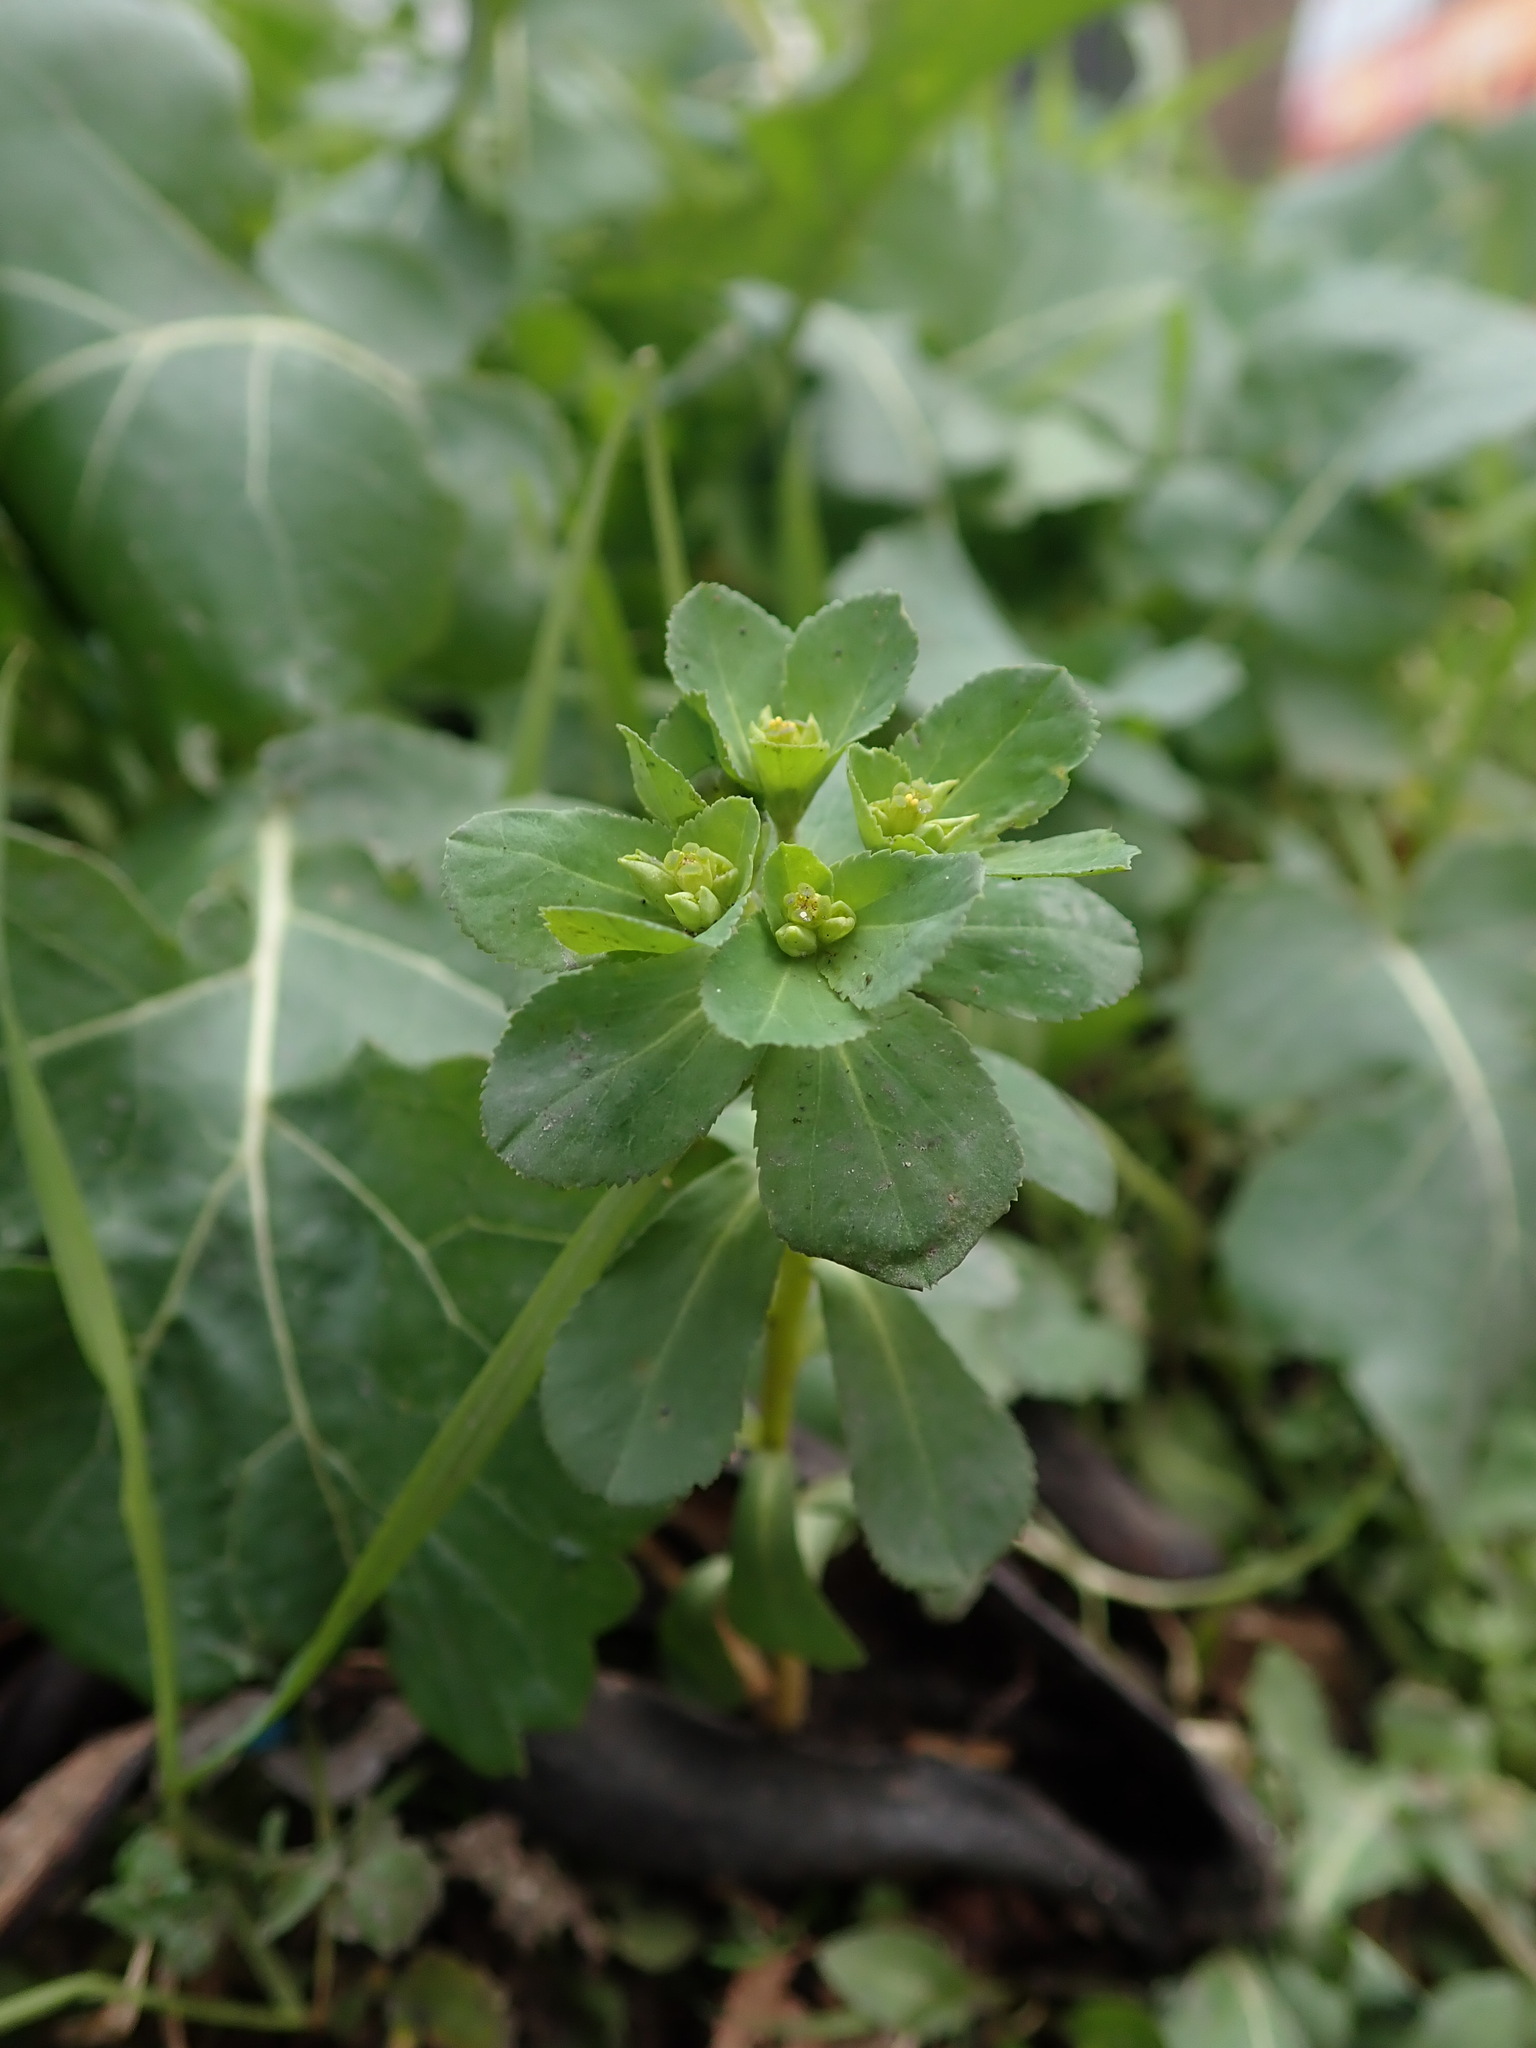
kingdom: Plantae
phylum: Tracheophyta
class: Magnoliopsida
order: Malpighiales
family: Euphorbiaceae
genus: Euphorbia
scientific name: Euphorbia helioscopia
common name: Sun spurge
